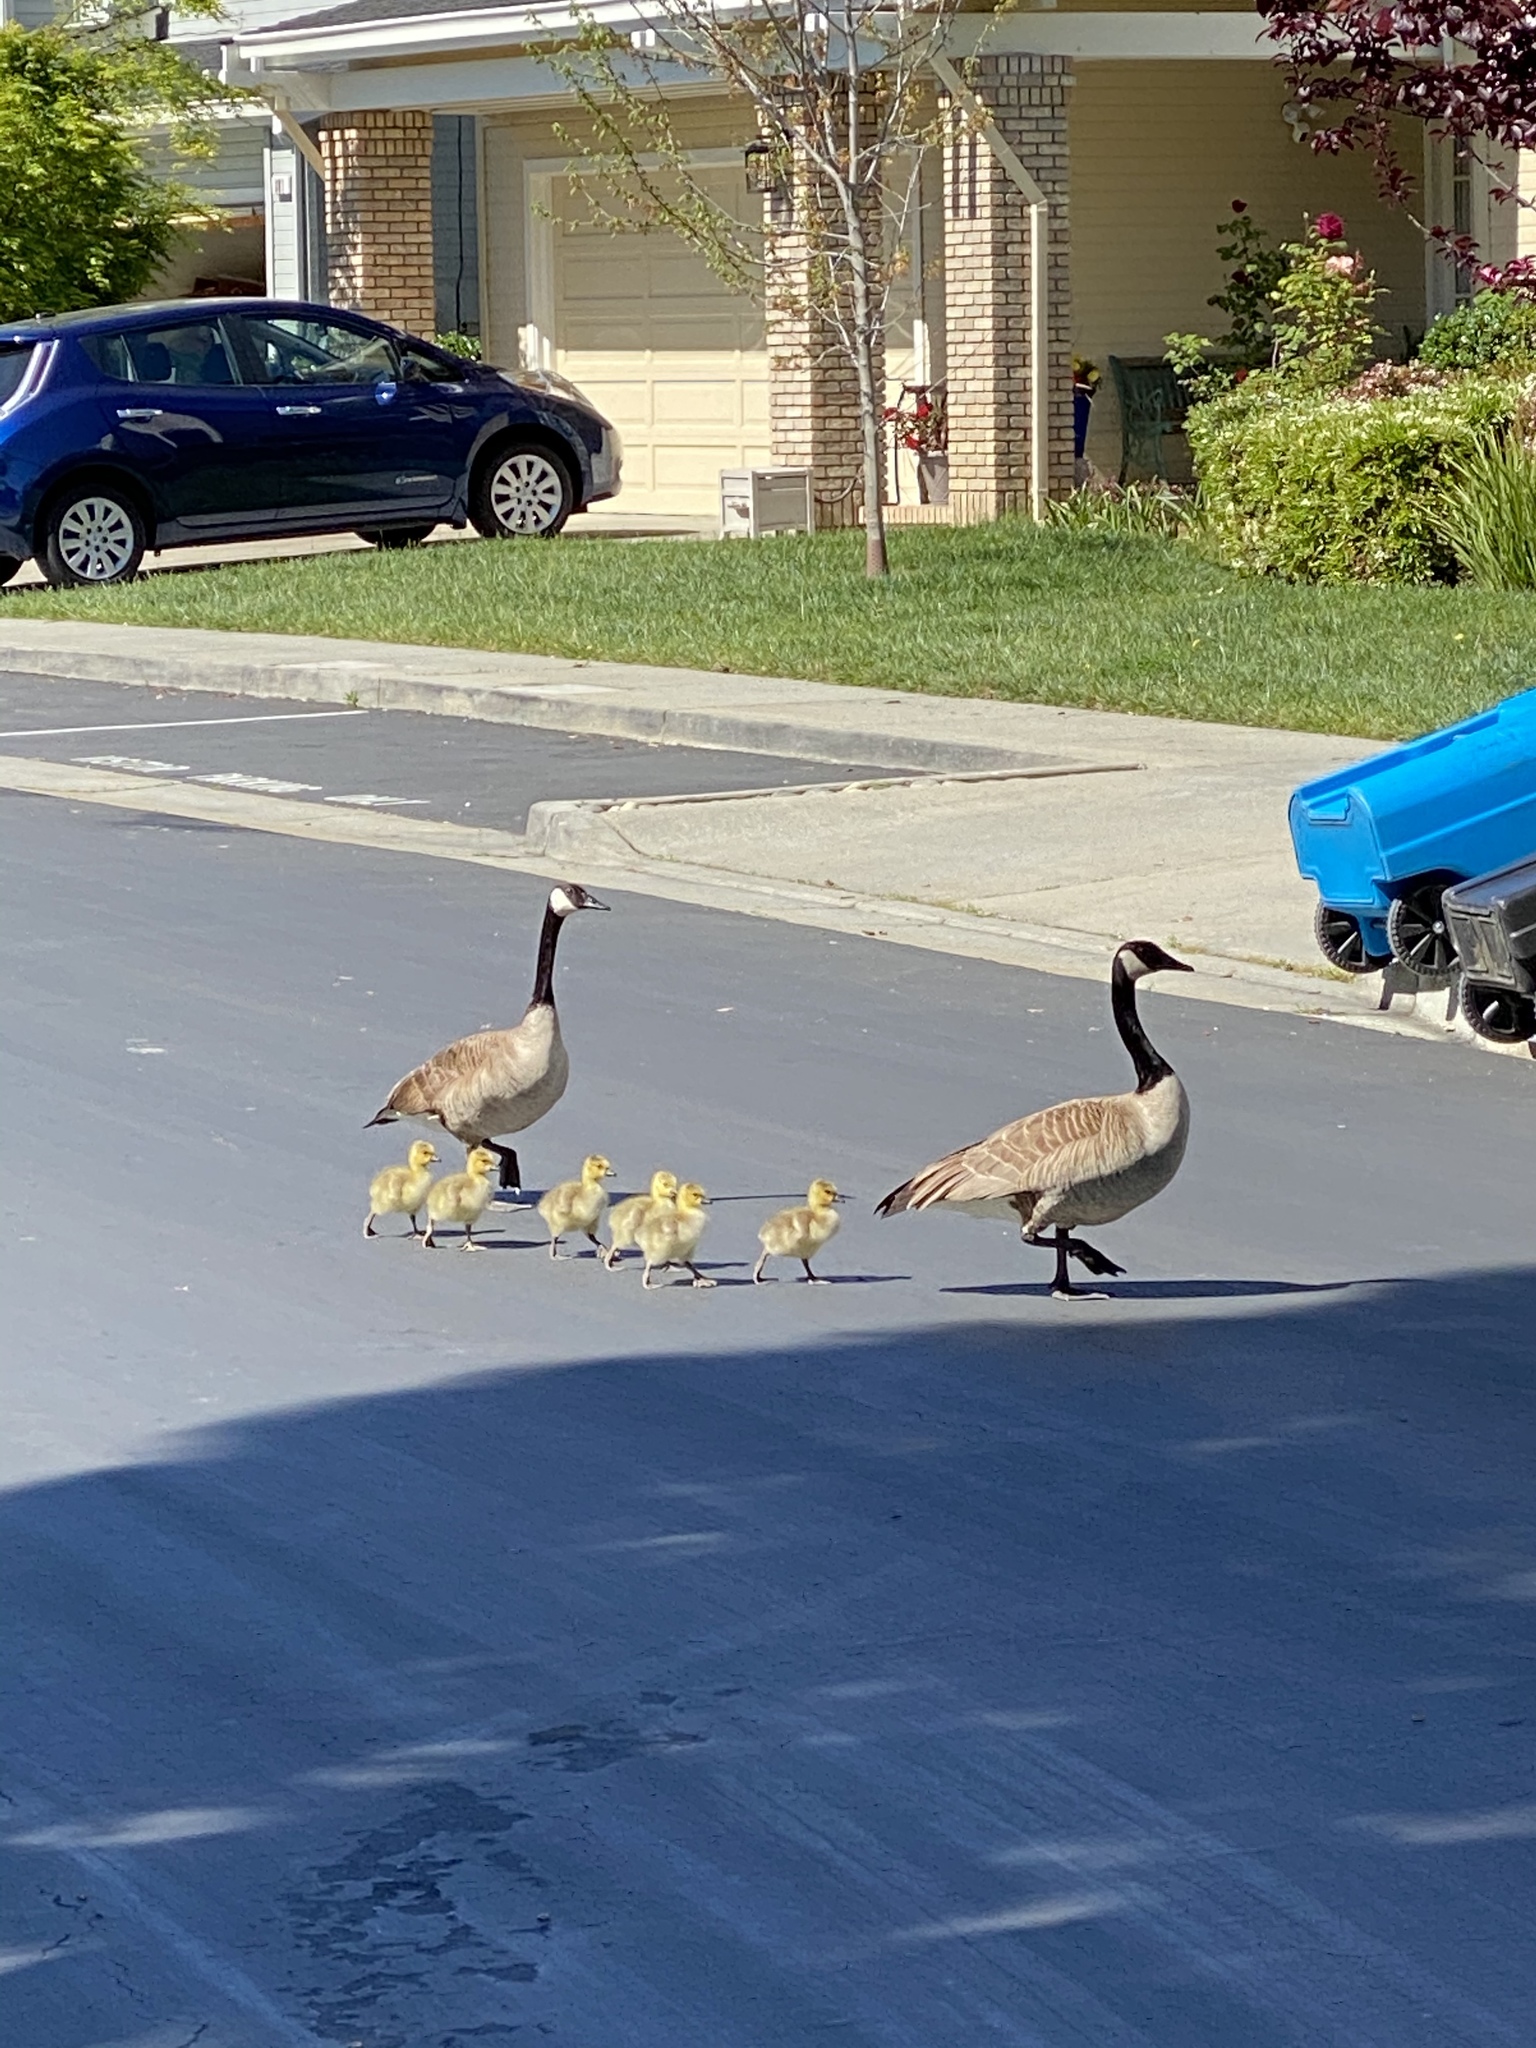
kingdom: Animalia
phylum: Chordata
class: Aves
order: Anseriformes
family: Anatidae
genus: Branta
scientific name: Branta canadensis
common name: Canada goose
